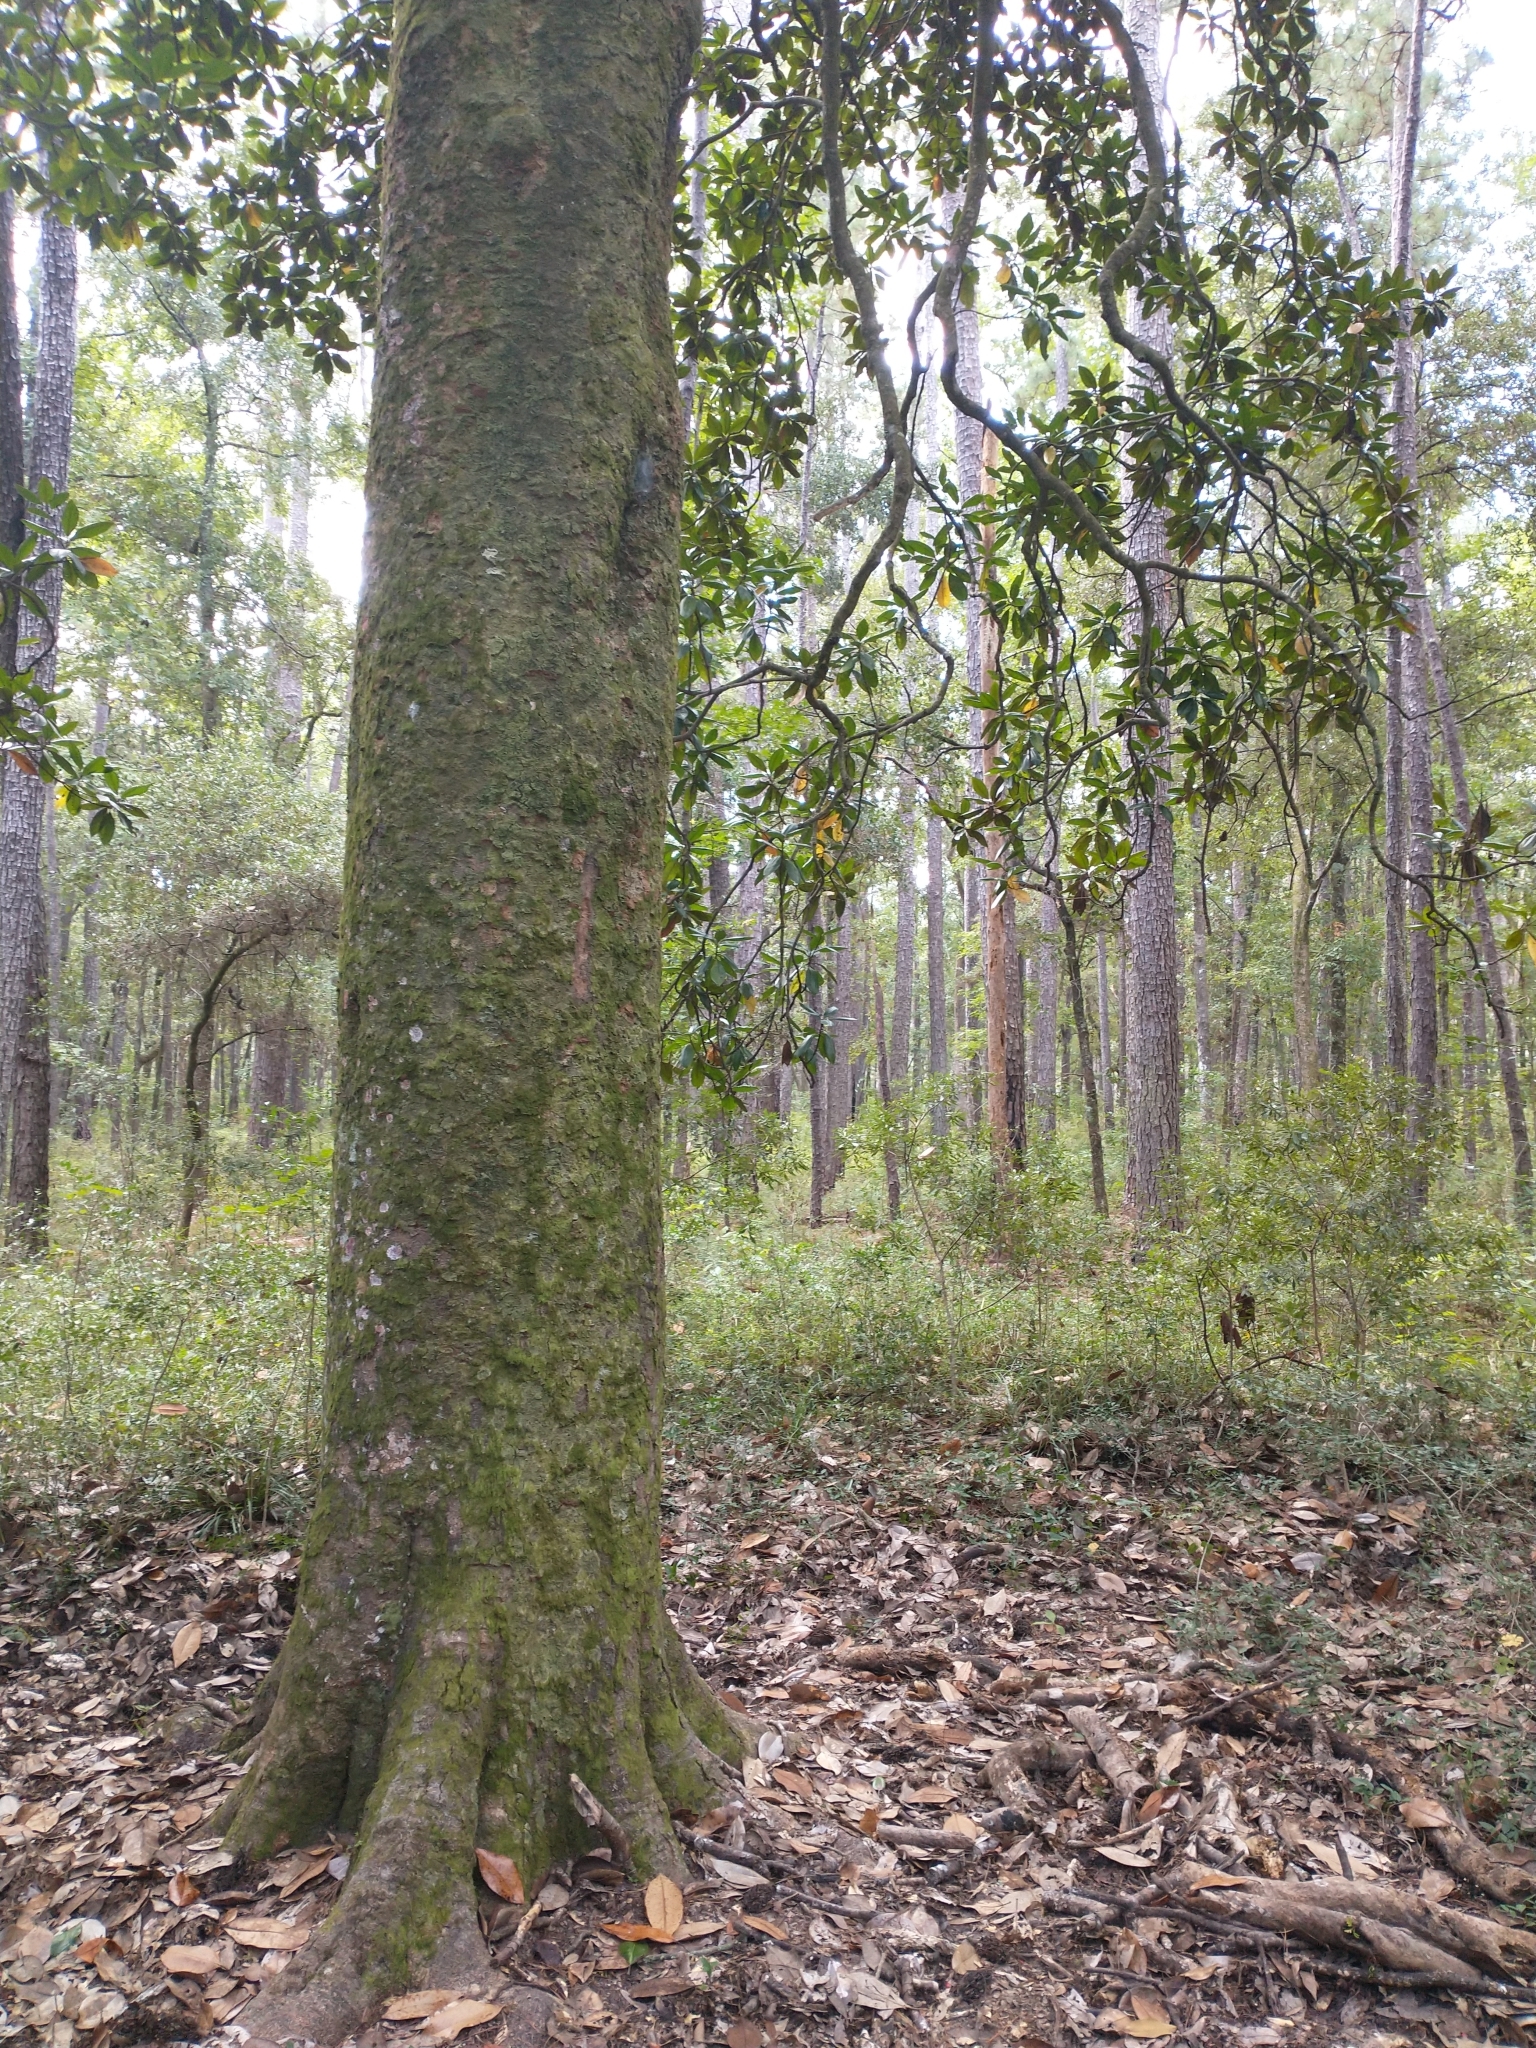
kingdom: Plantae
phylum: Tracheophyta
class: Magnoliopsida
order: Magnoliales
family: Magnoliaceae
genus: Magnolia
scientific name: Magnolia grandiflora
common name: Southern magnolia
